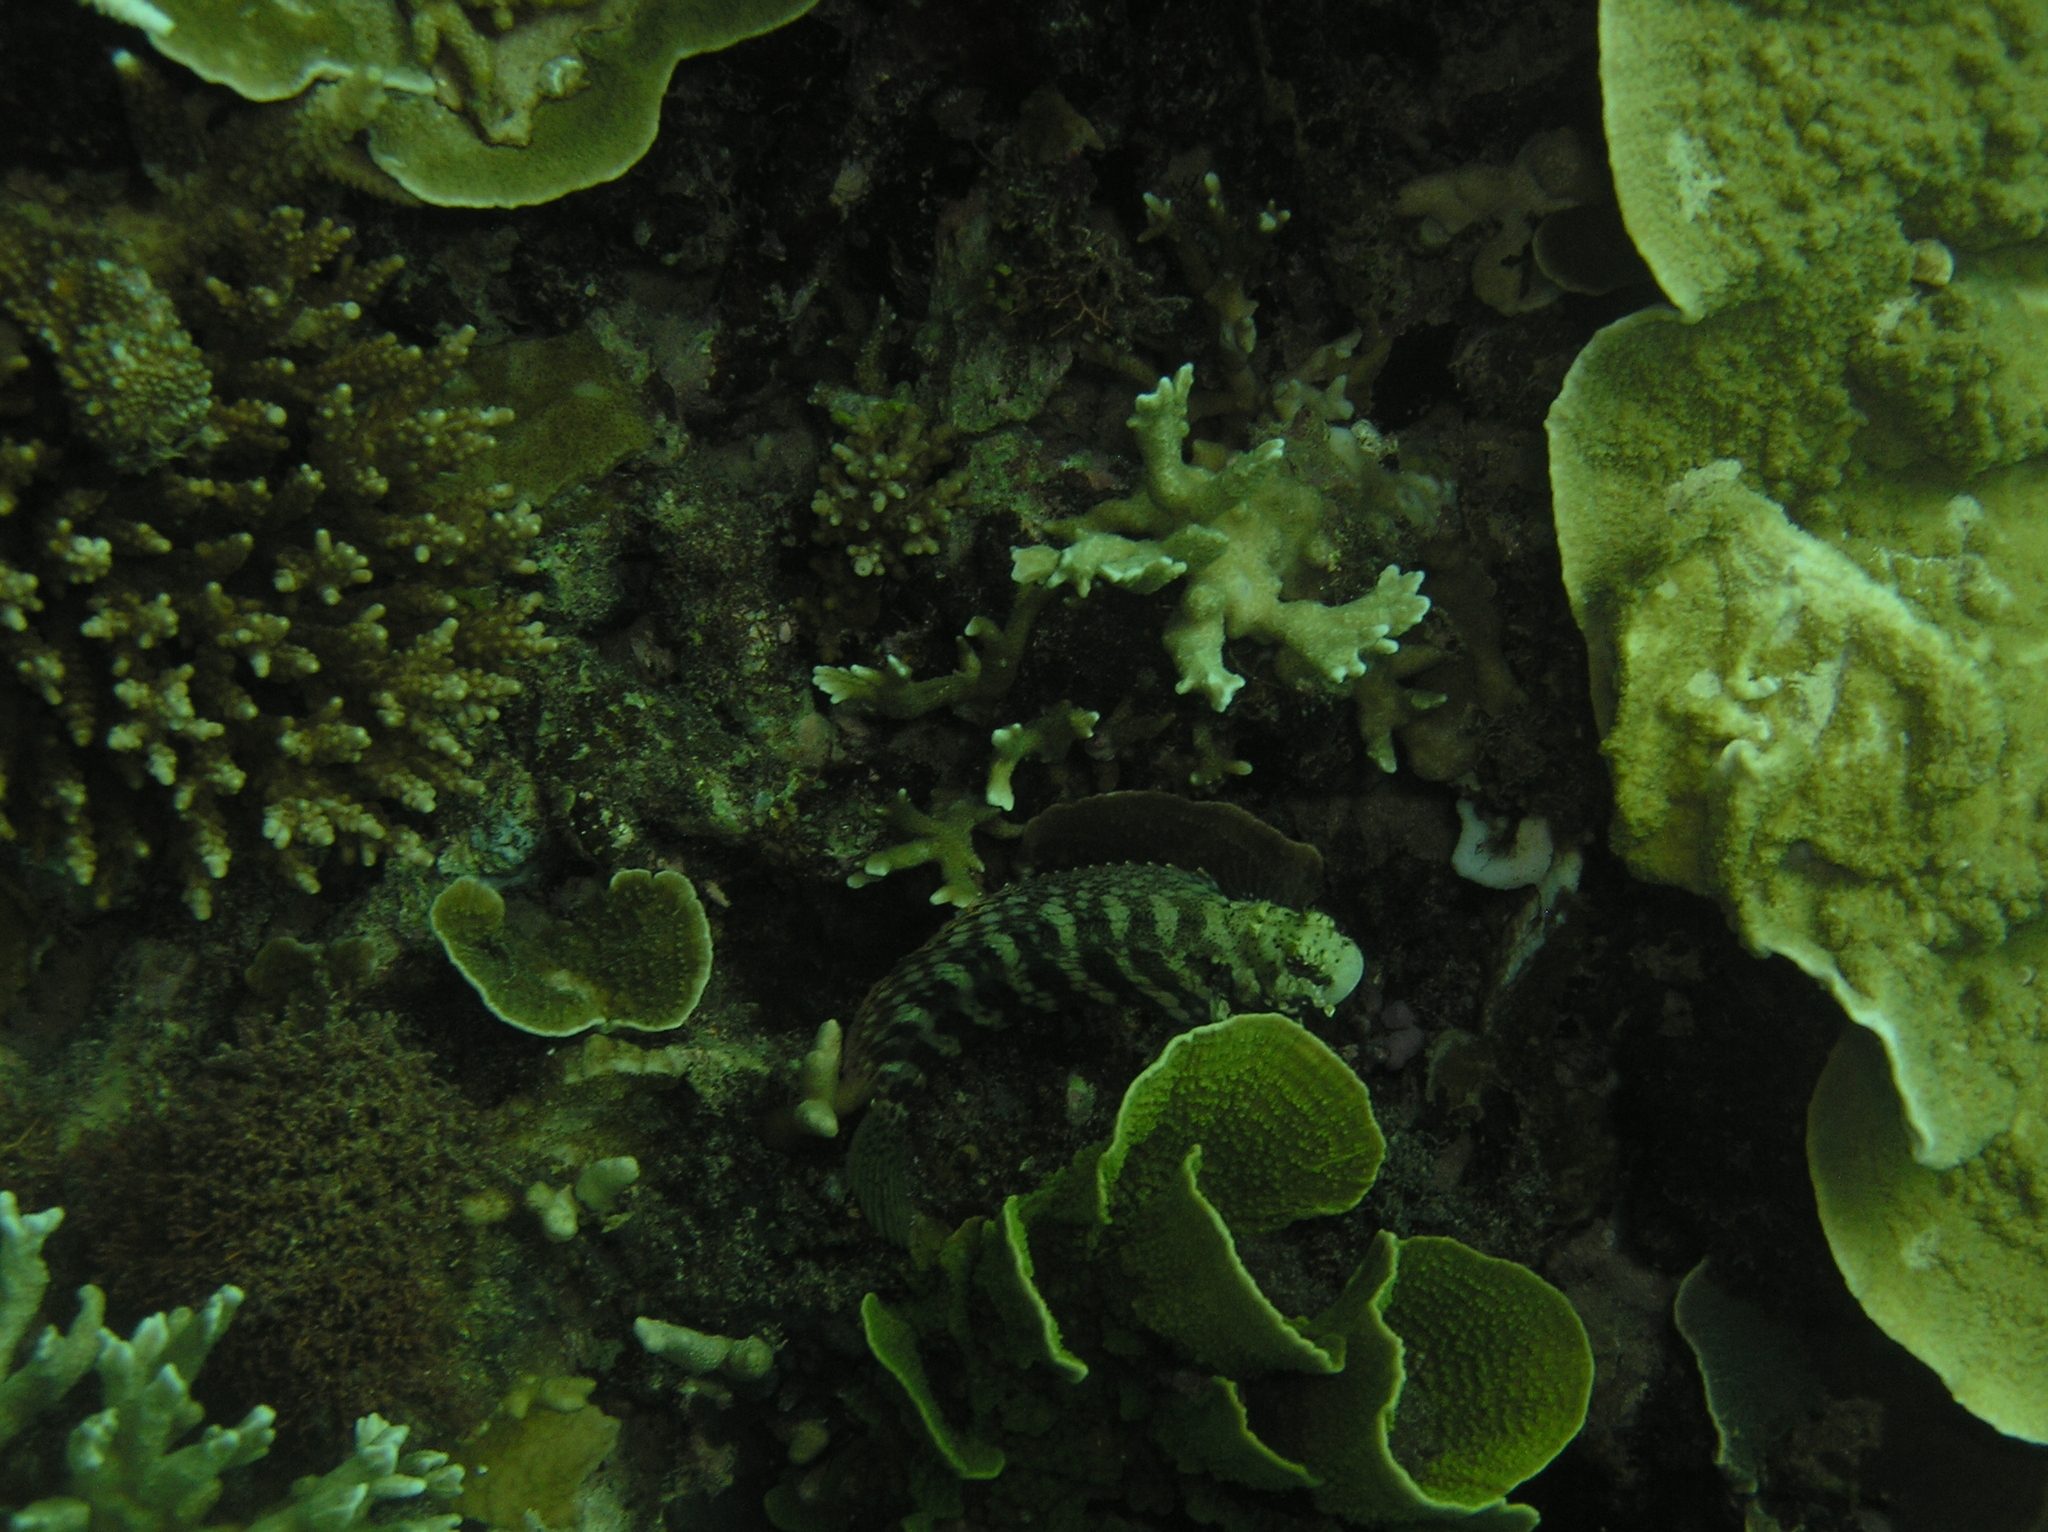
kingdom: Animalia
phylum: Chordata
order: Perciformes
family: Blenniidae
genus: Salarias
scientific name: Salarias fasciatus
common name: Jewelled blenny
